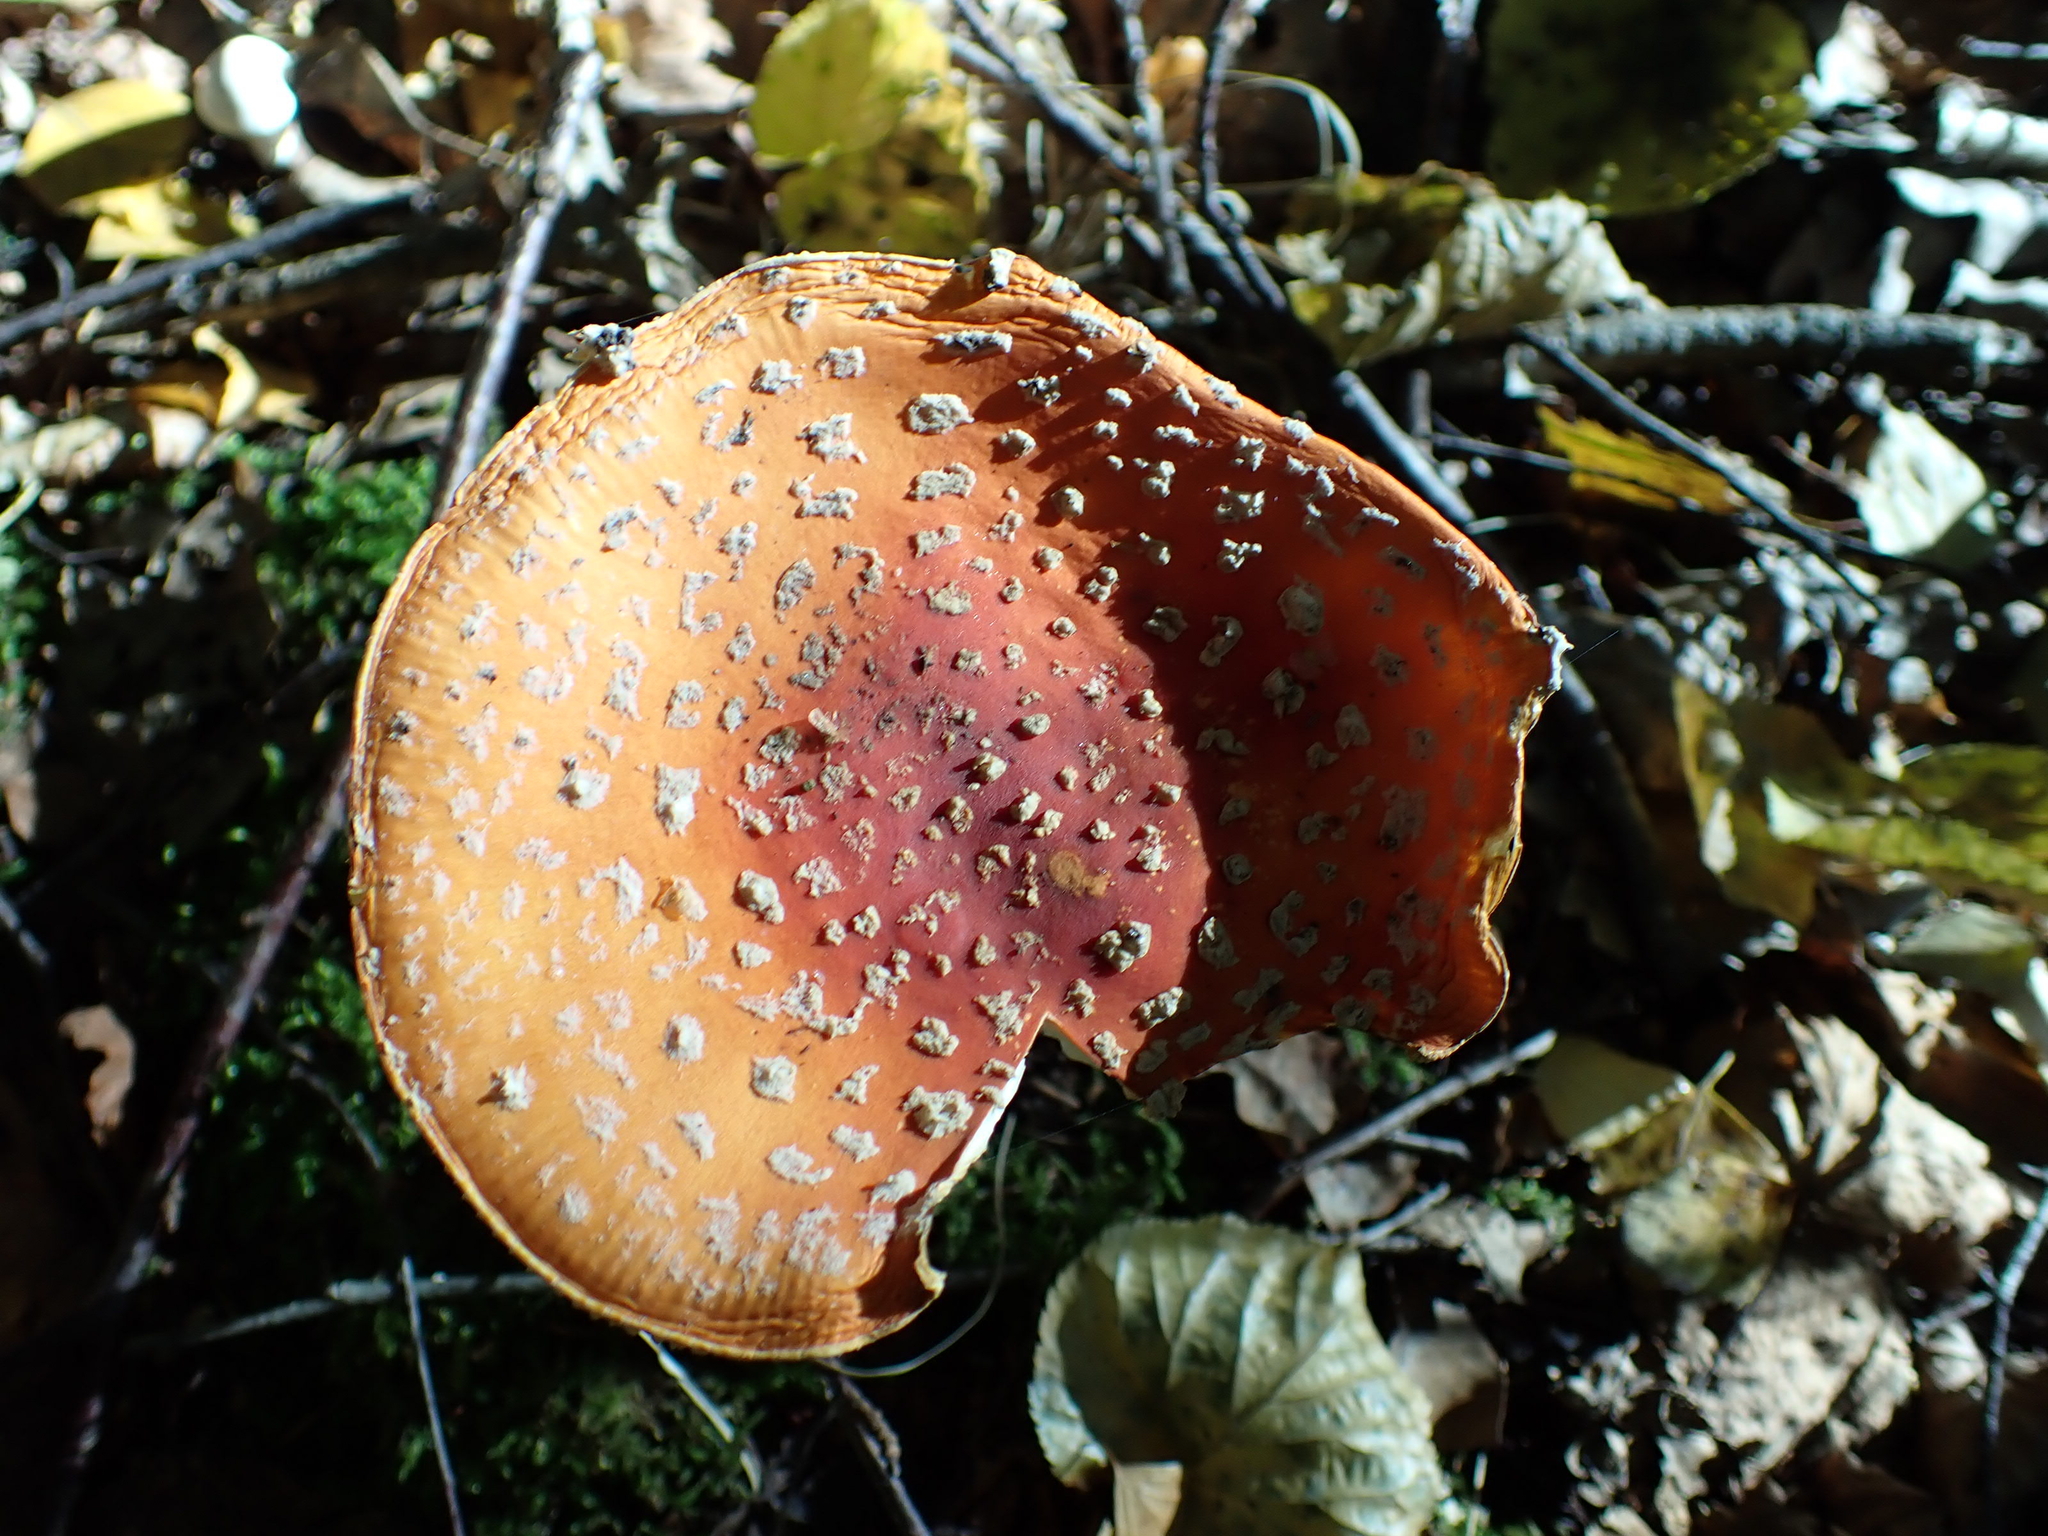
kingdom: Fungi
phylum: Basidiomycota
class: Agaricomycetes
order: Agaricales
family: Amanitaceae
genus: Amanita
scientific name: Amanita muscaria
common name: Fly agaric
